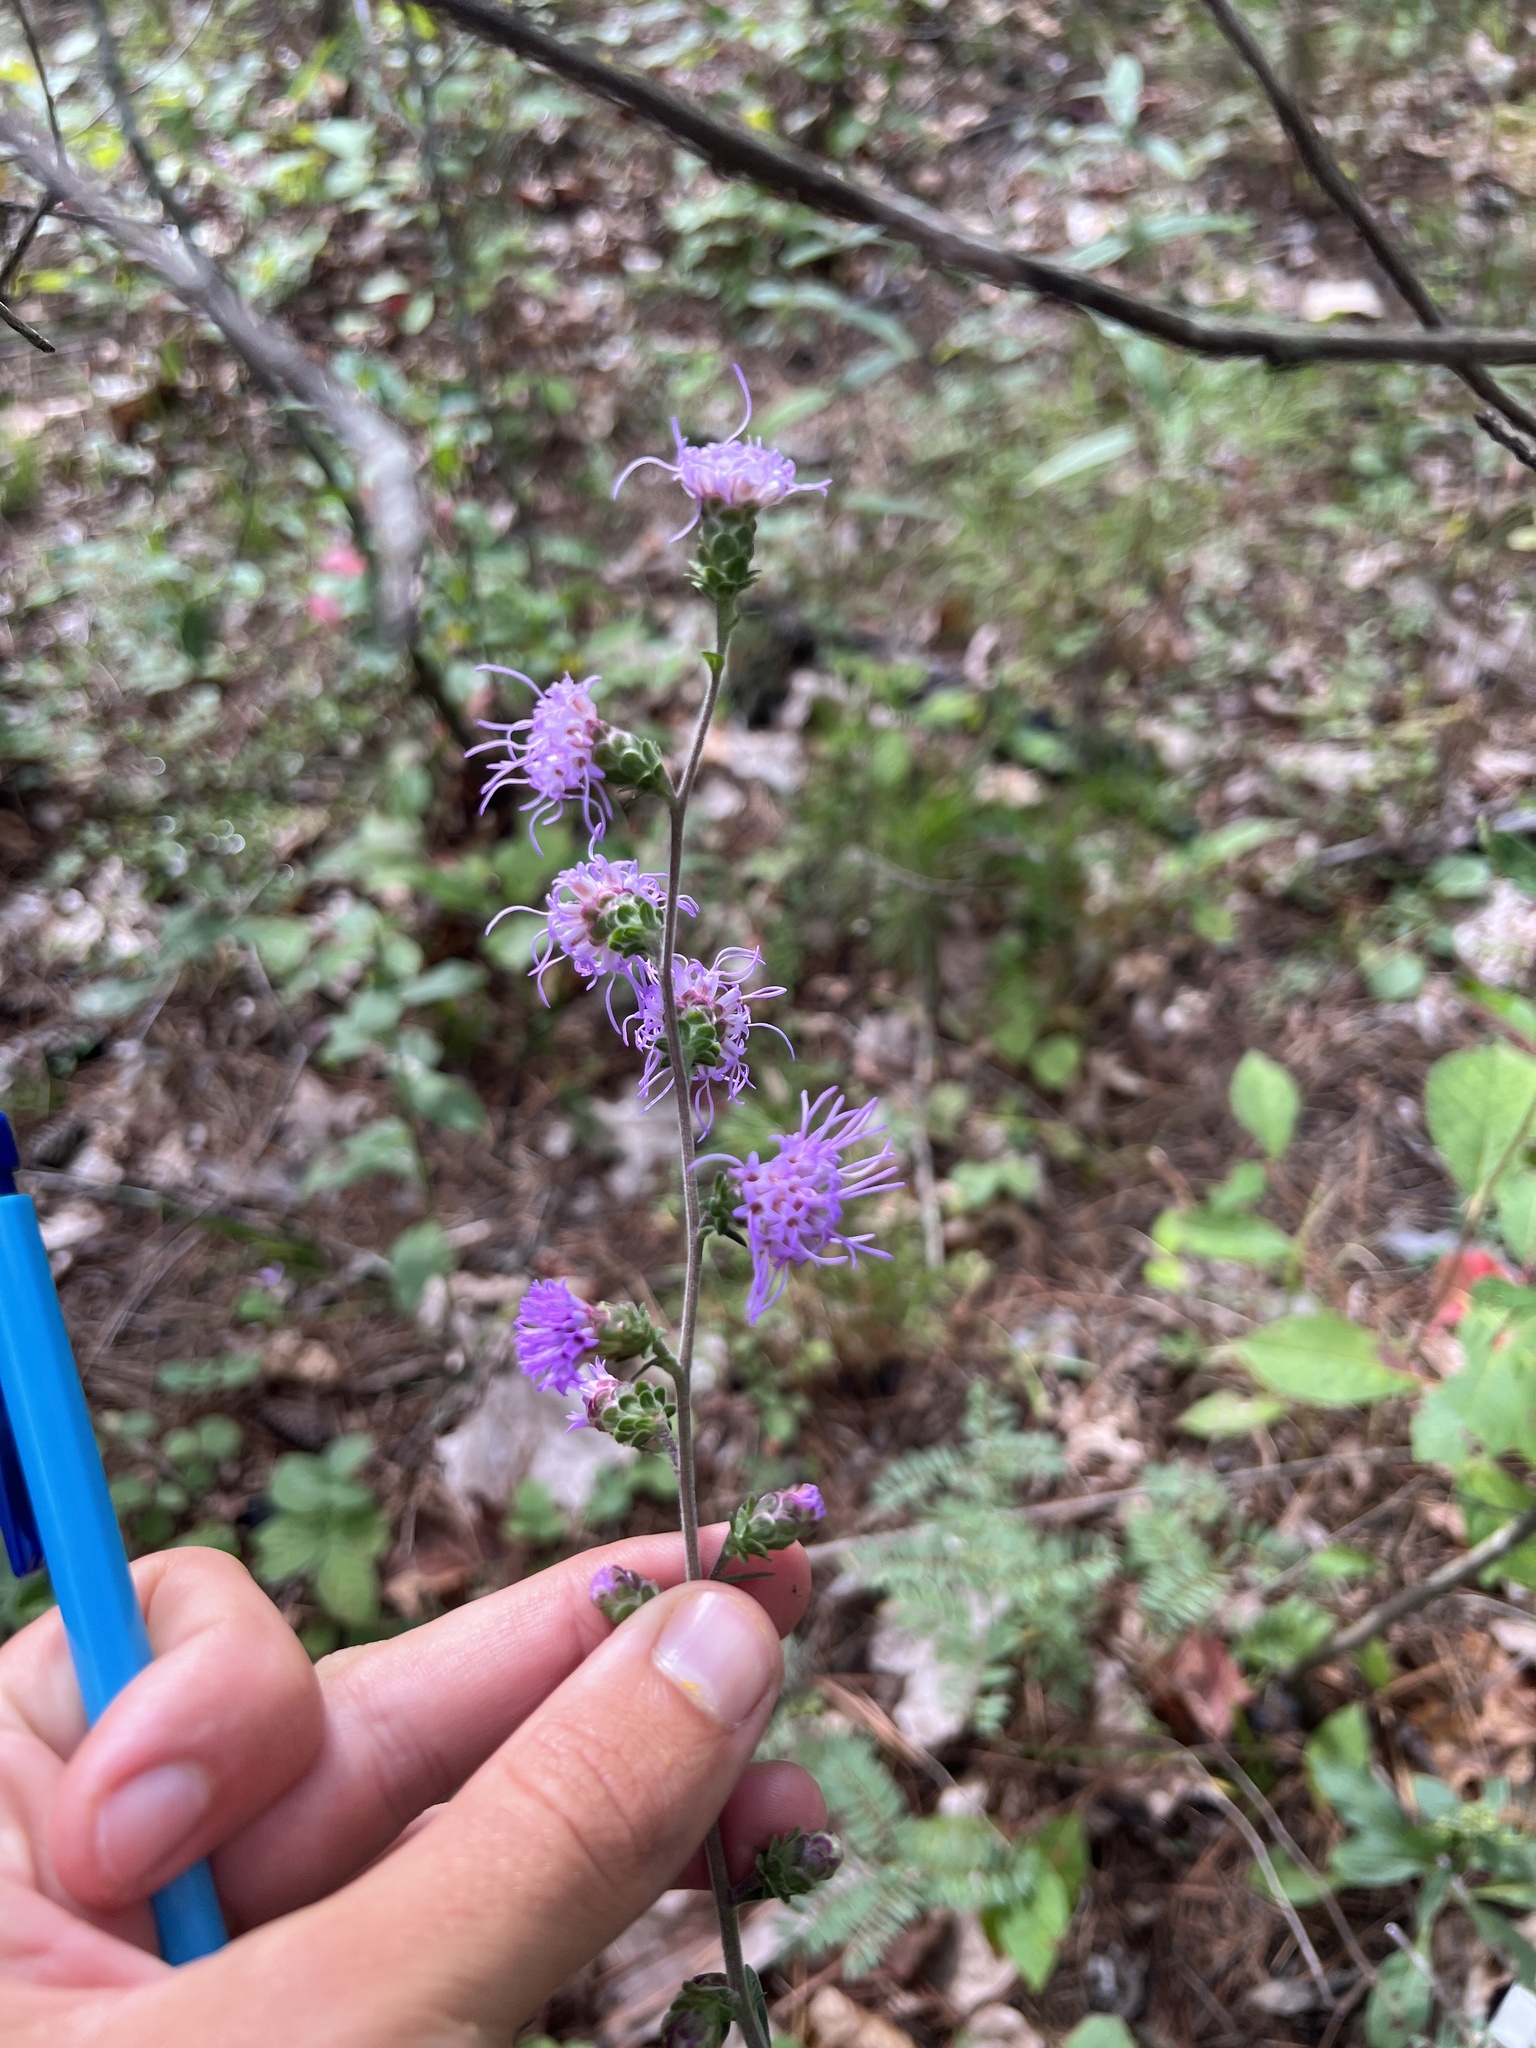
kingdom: Plantae
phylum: Tracheophyta
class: Magnoliopsida
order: Asterales
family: Asteraceae
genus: Liatris
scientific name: Liatris squarrulosa
